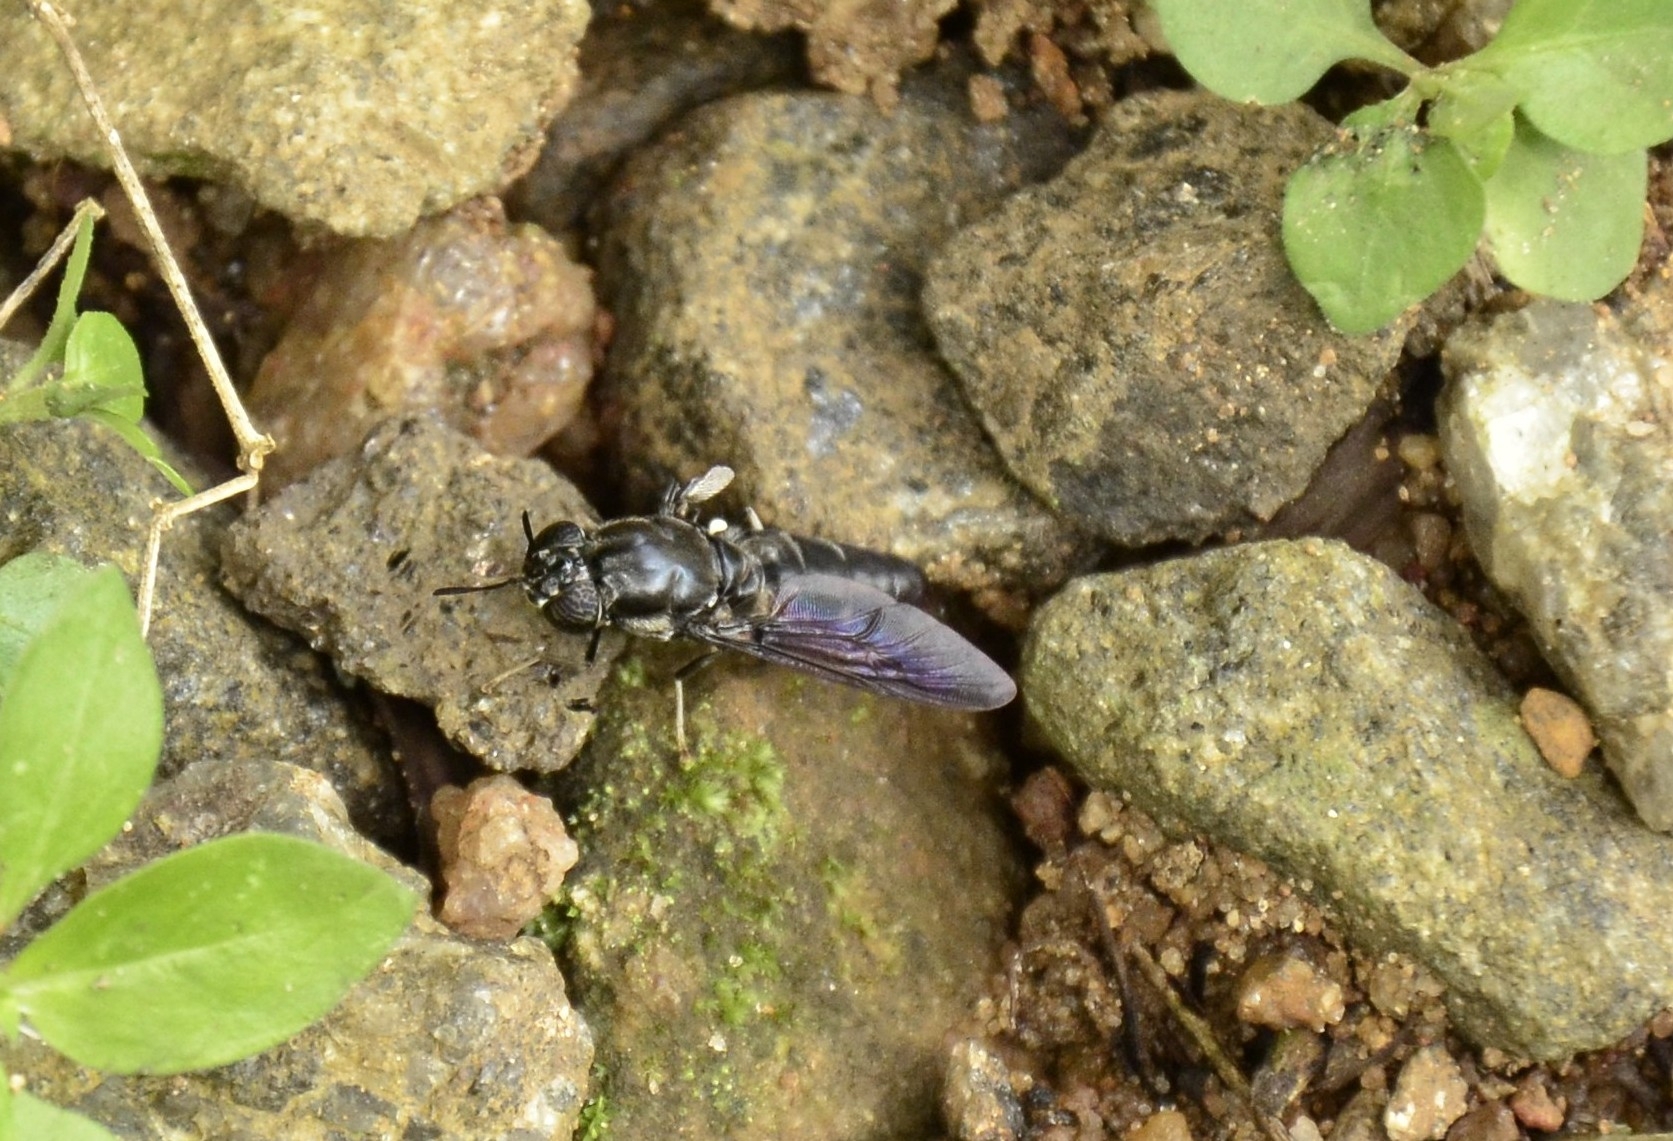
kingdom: Animalia
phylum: Arthropoda
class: Insecta
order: Diptera
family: Stratiomyidae
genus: Hermetia
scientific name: Hermetia illucens
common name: Black soldier fly
